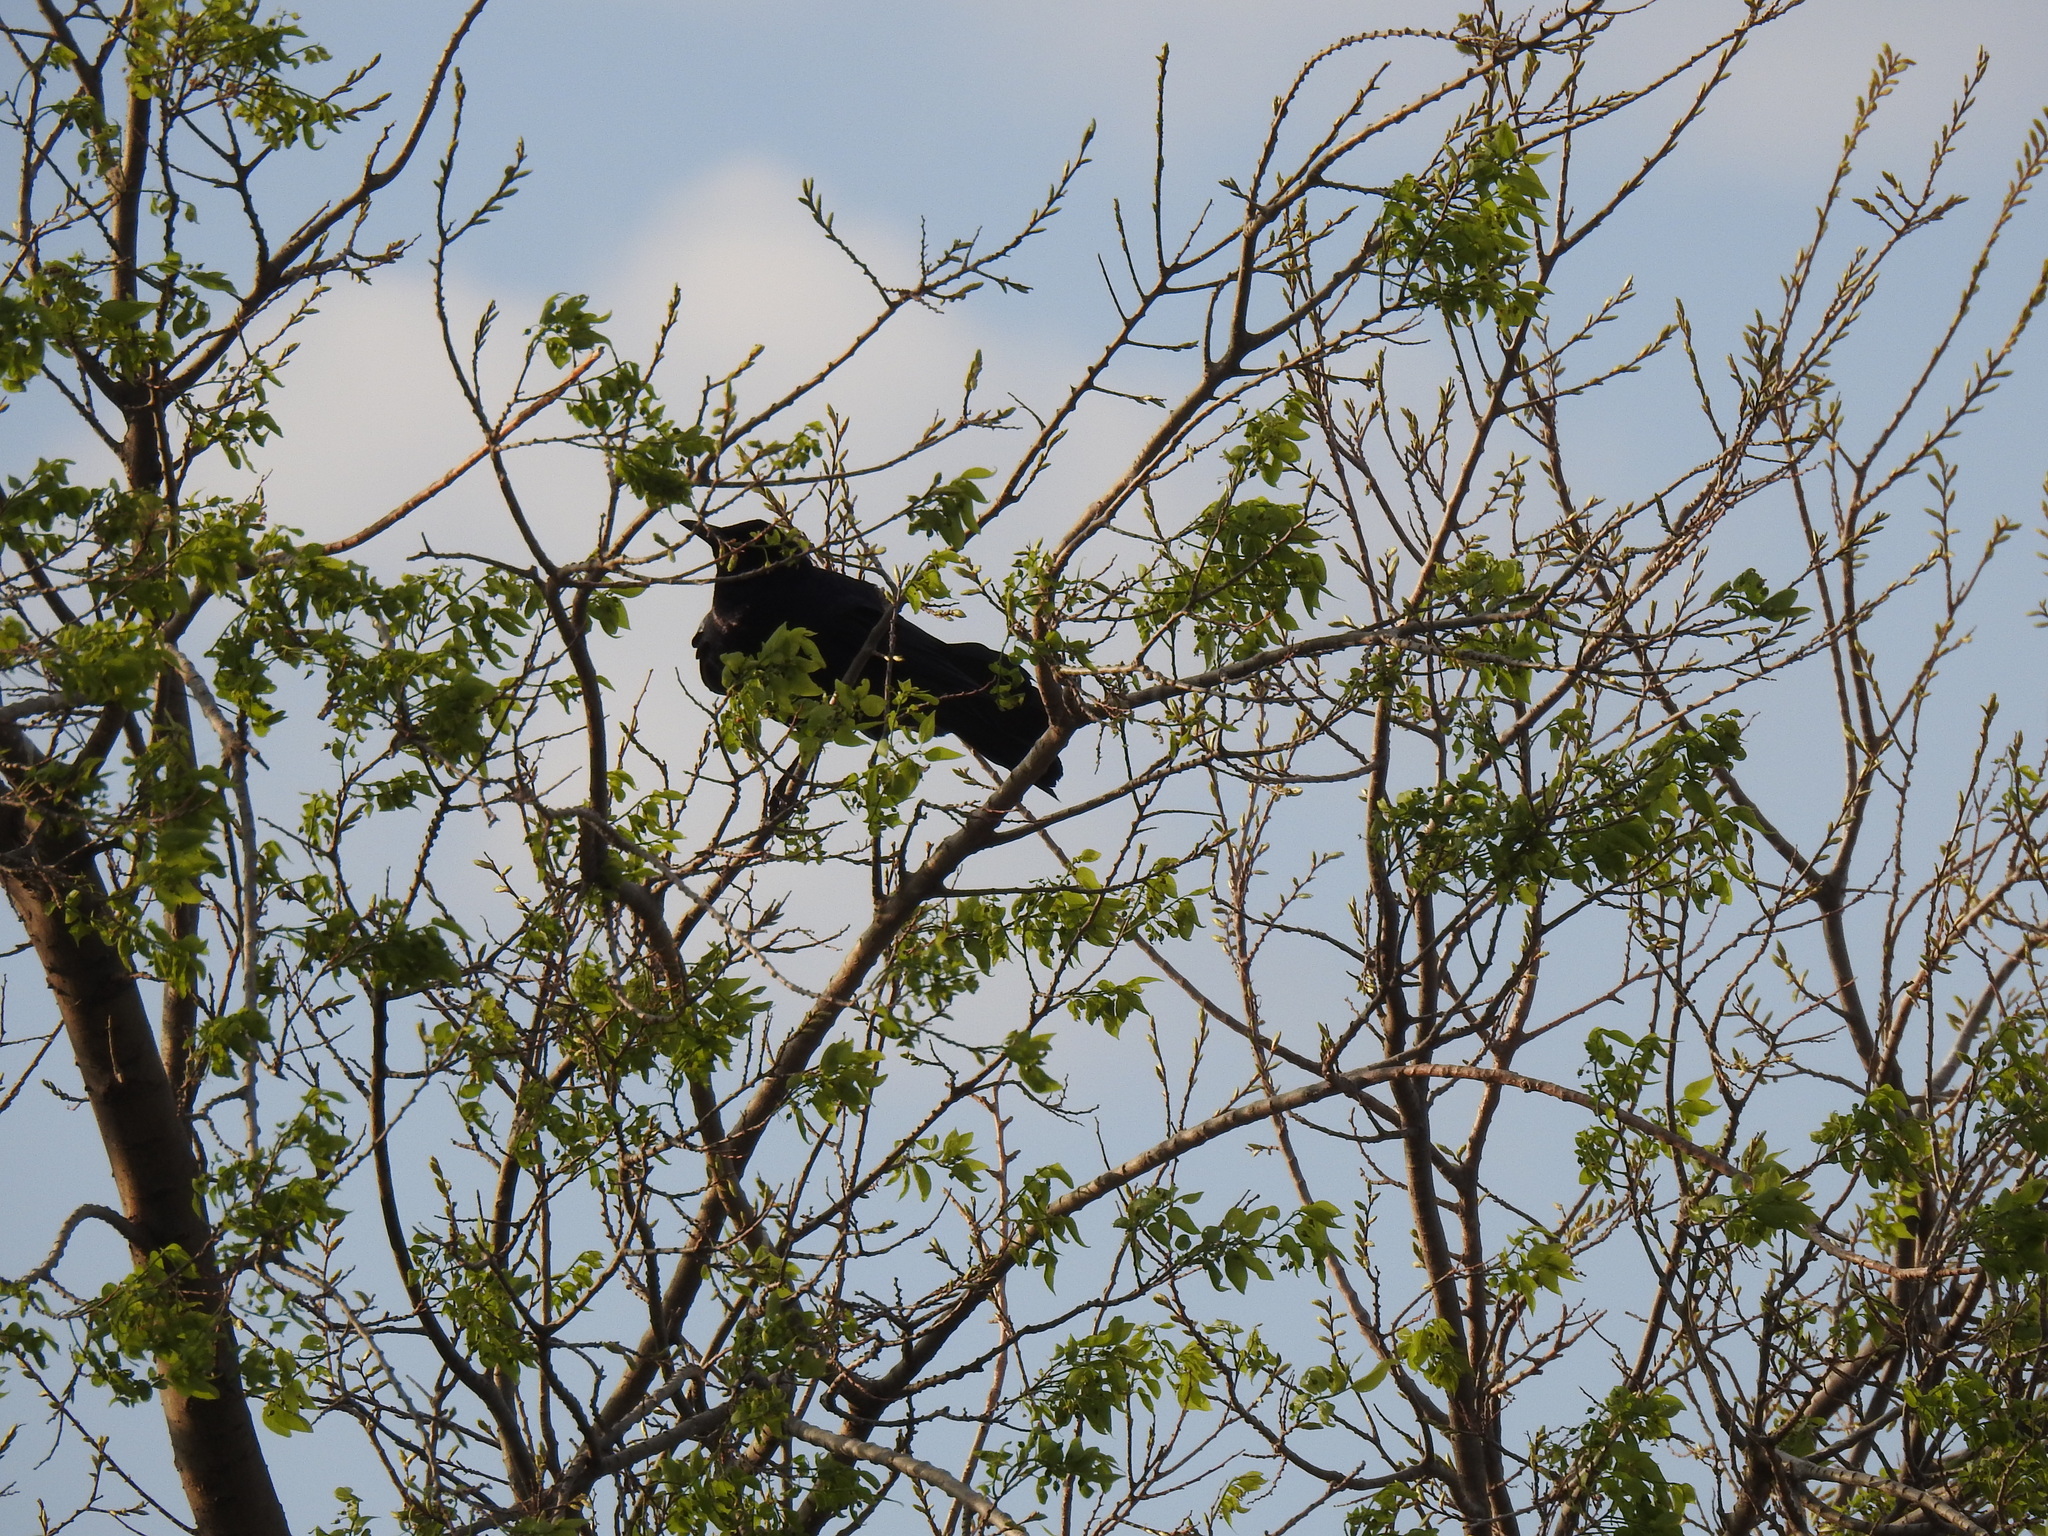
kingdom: Animalia
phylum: Chordata
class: Aves
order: Passeriformes
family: Icteridae
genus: Quiscalus
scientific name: Quiscalus mexicanus
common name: Great-tailed grackle
